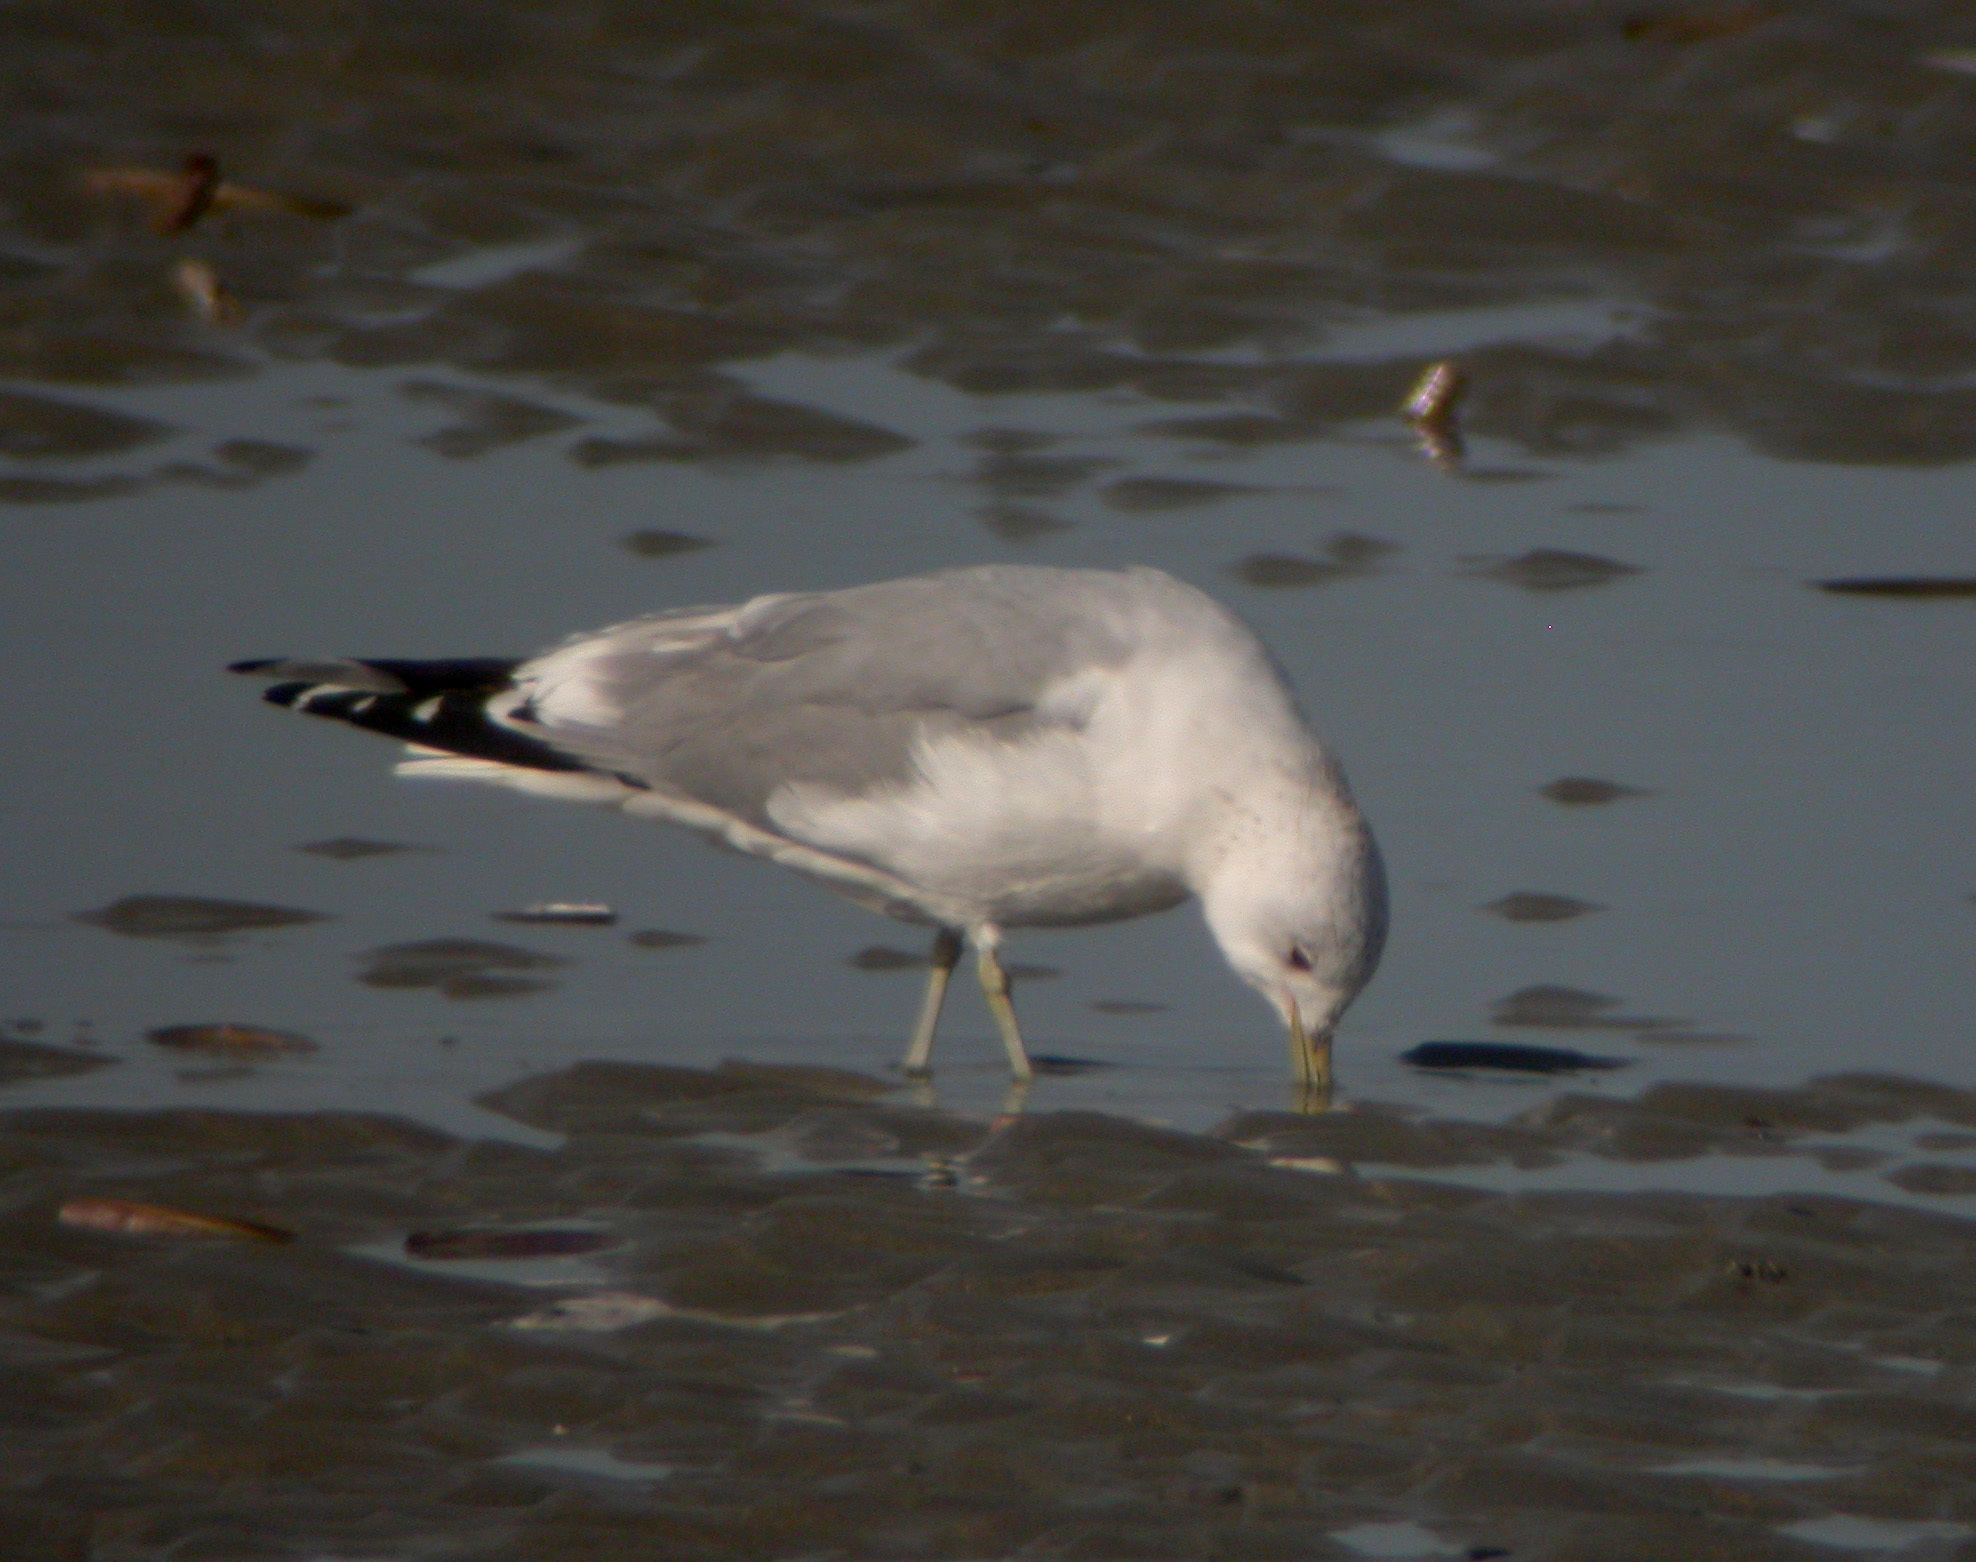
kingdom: Animalia
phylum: Chordata
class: Aves
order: Charadriiformes
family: Laridae
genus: Larus
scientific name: Larus canus
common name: Mew gull
